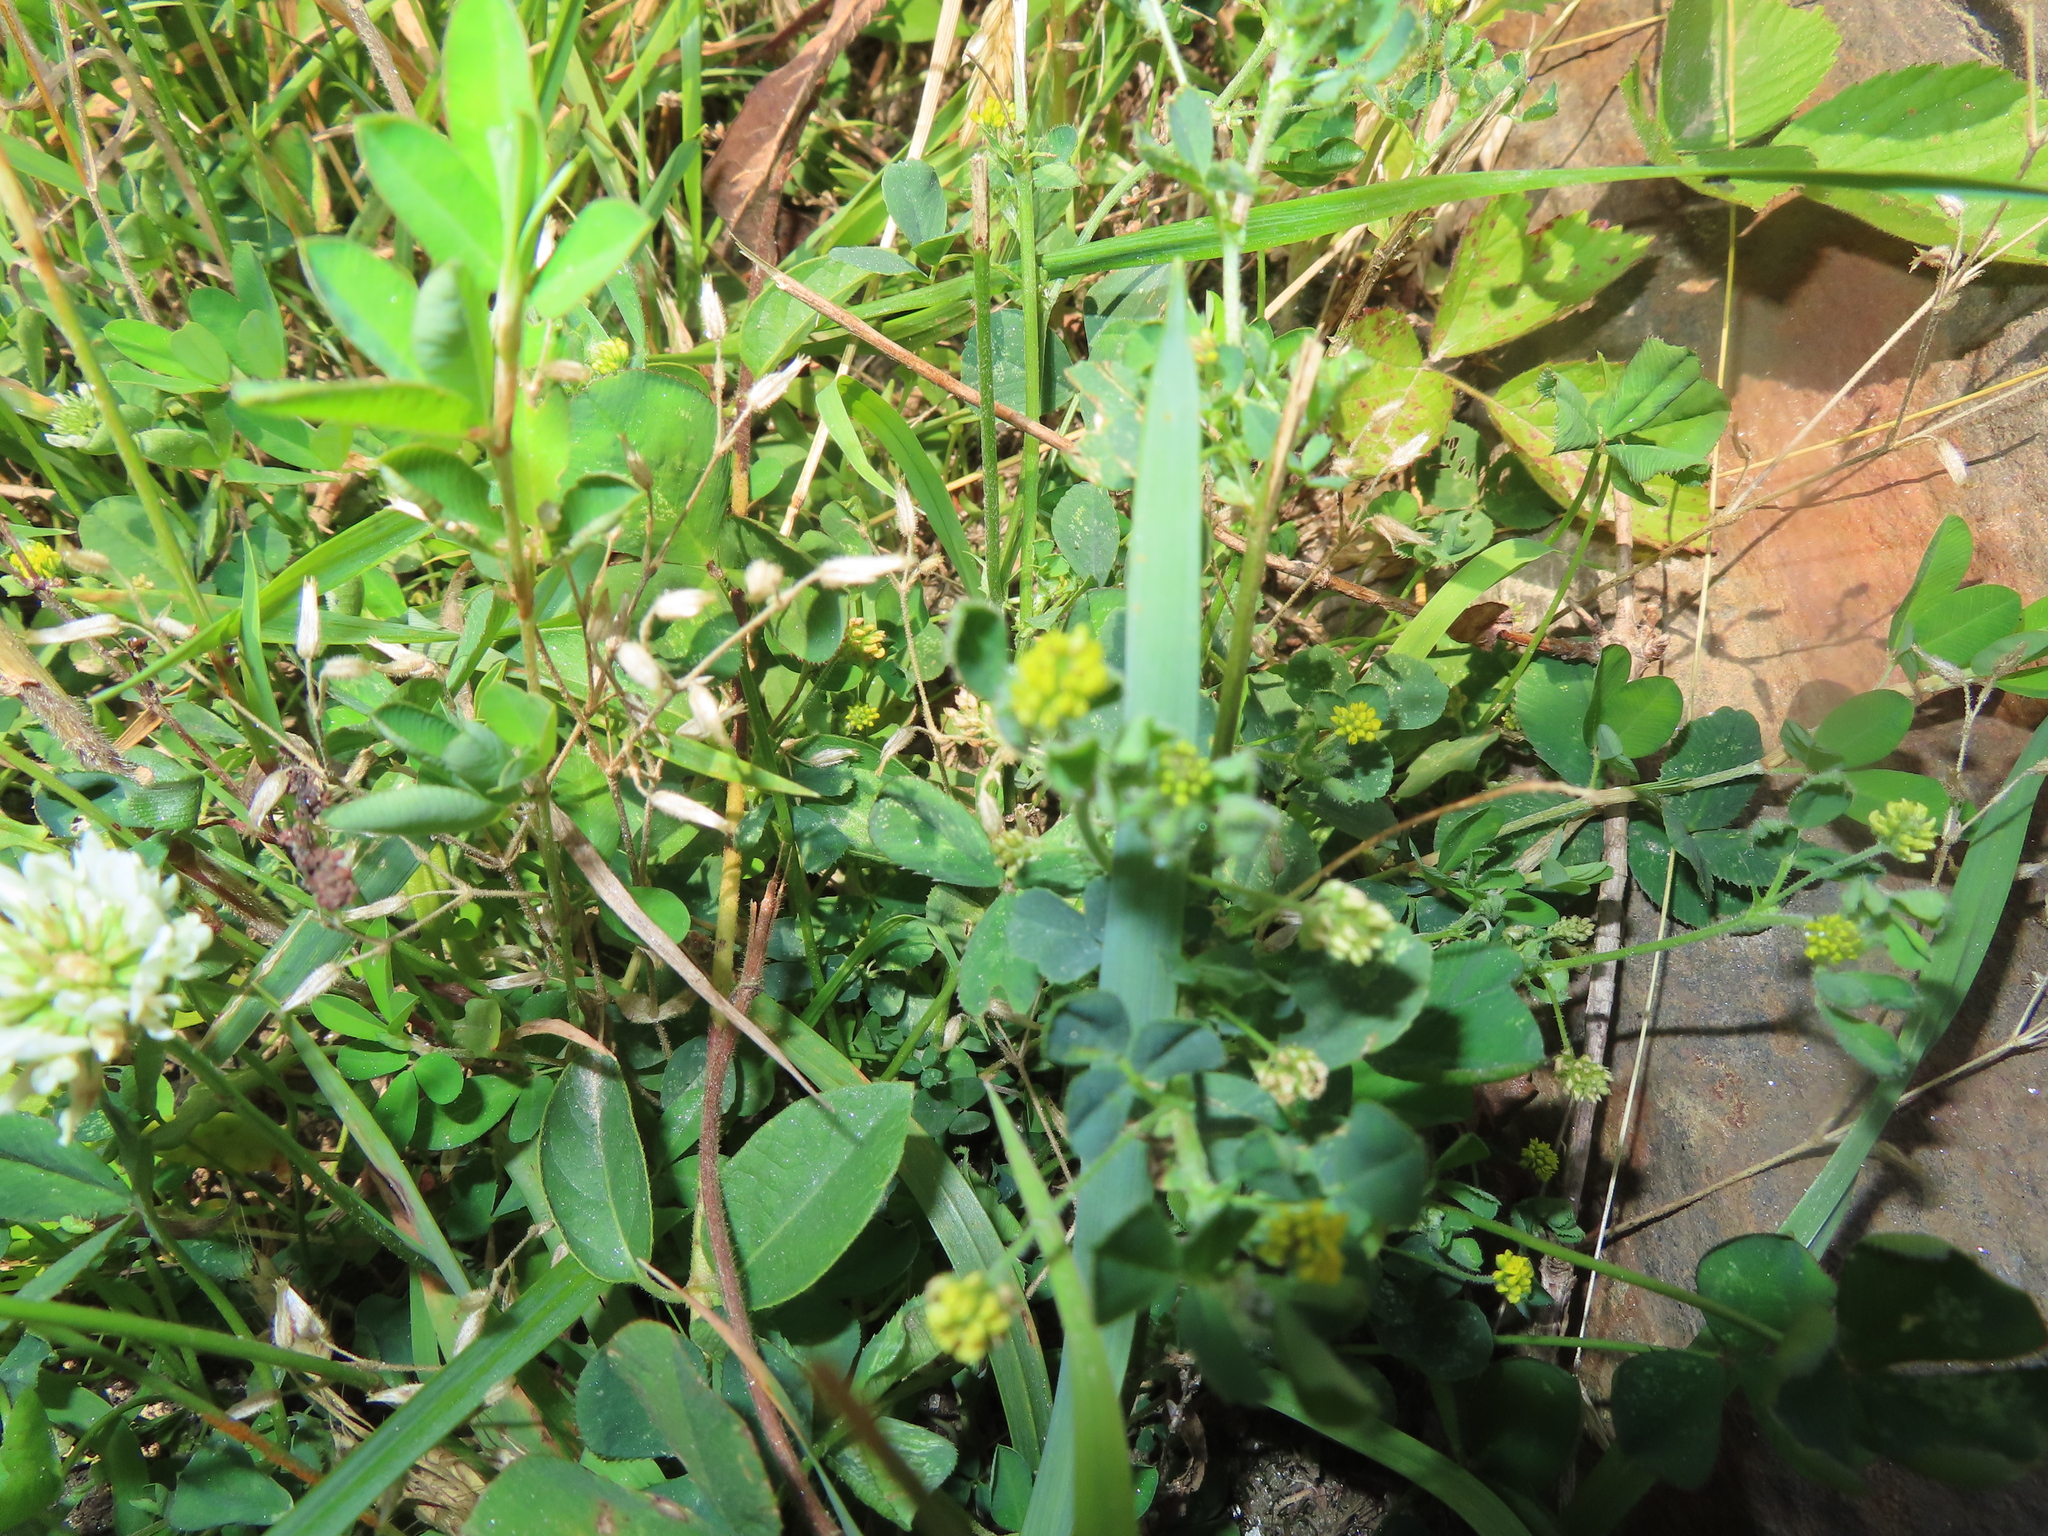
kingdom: Plantae
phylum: Tracheophyta
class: Magnoliopsida
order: Fabales
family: Fabaceae
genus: Medicago
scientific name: Medicago lupulina
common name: Black medick
